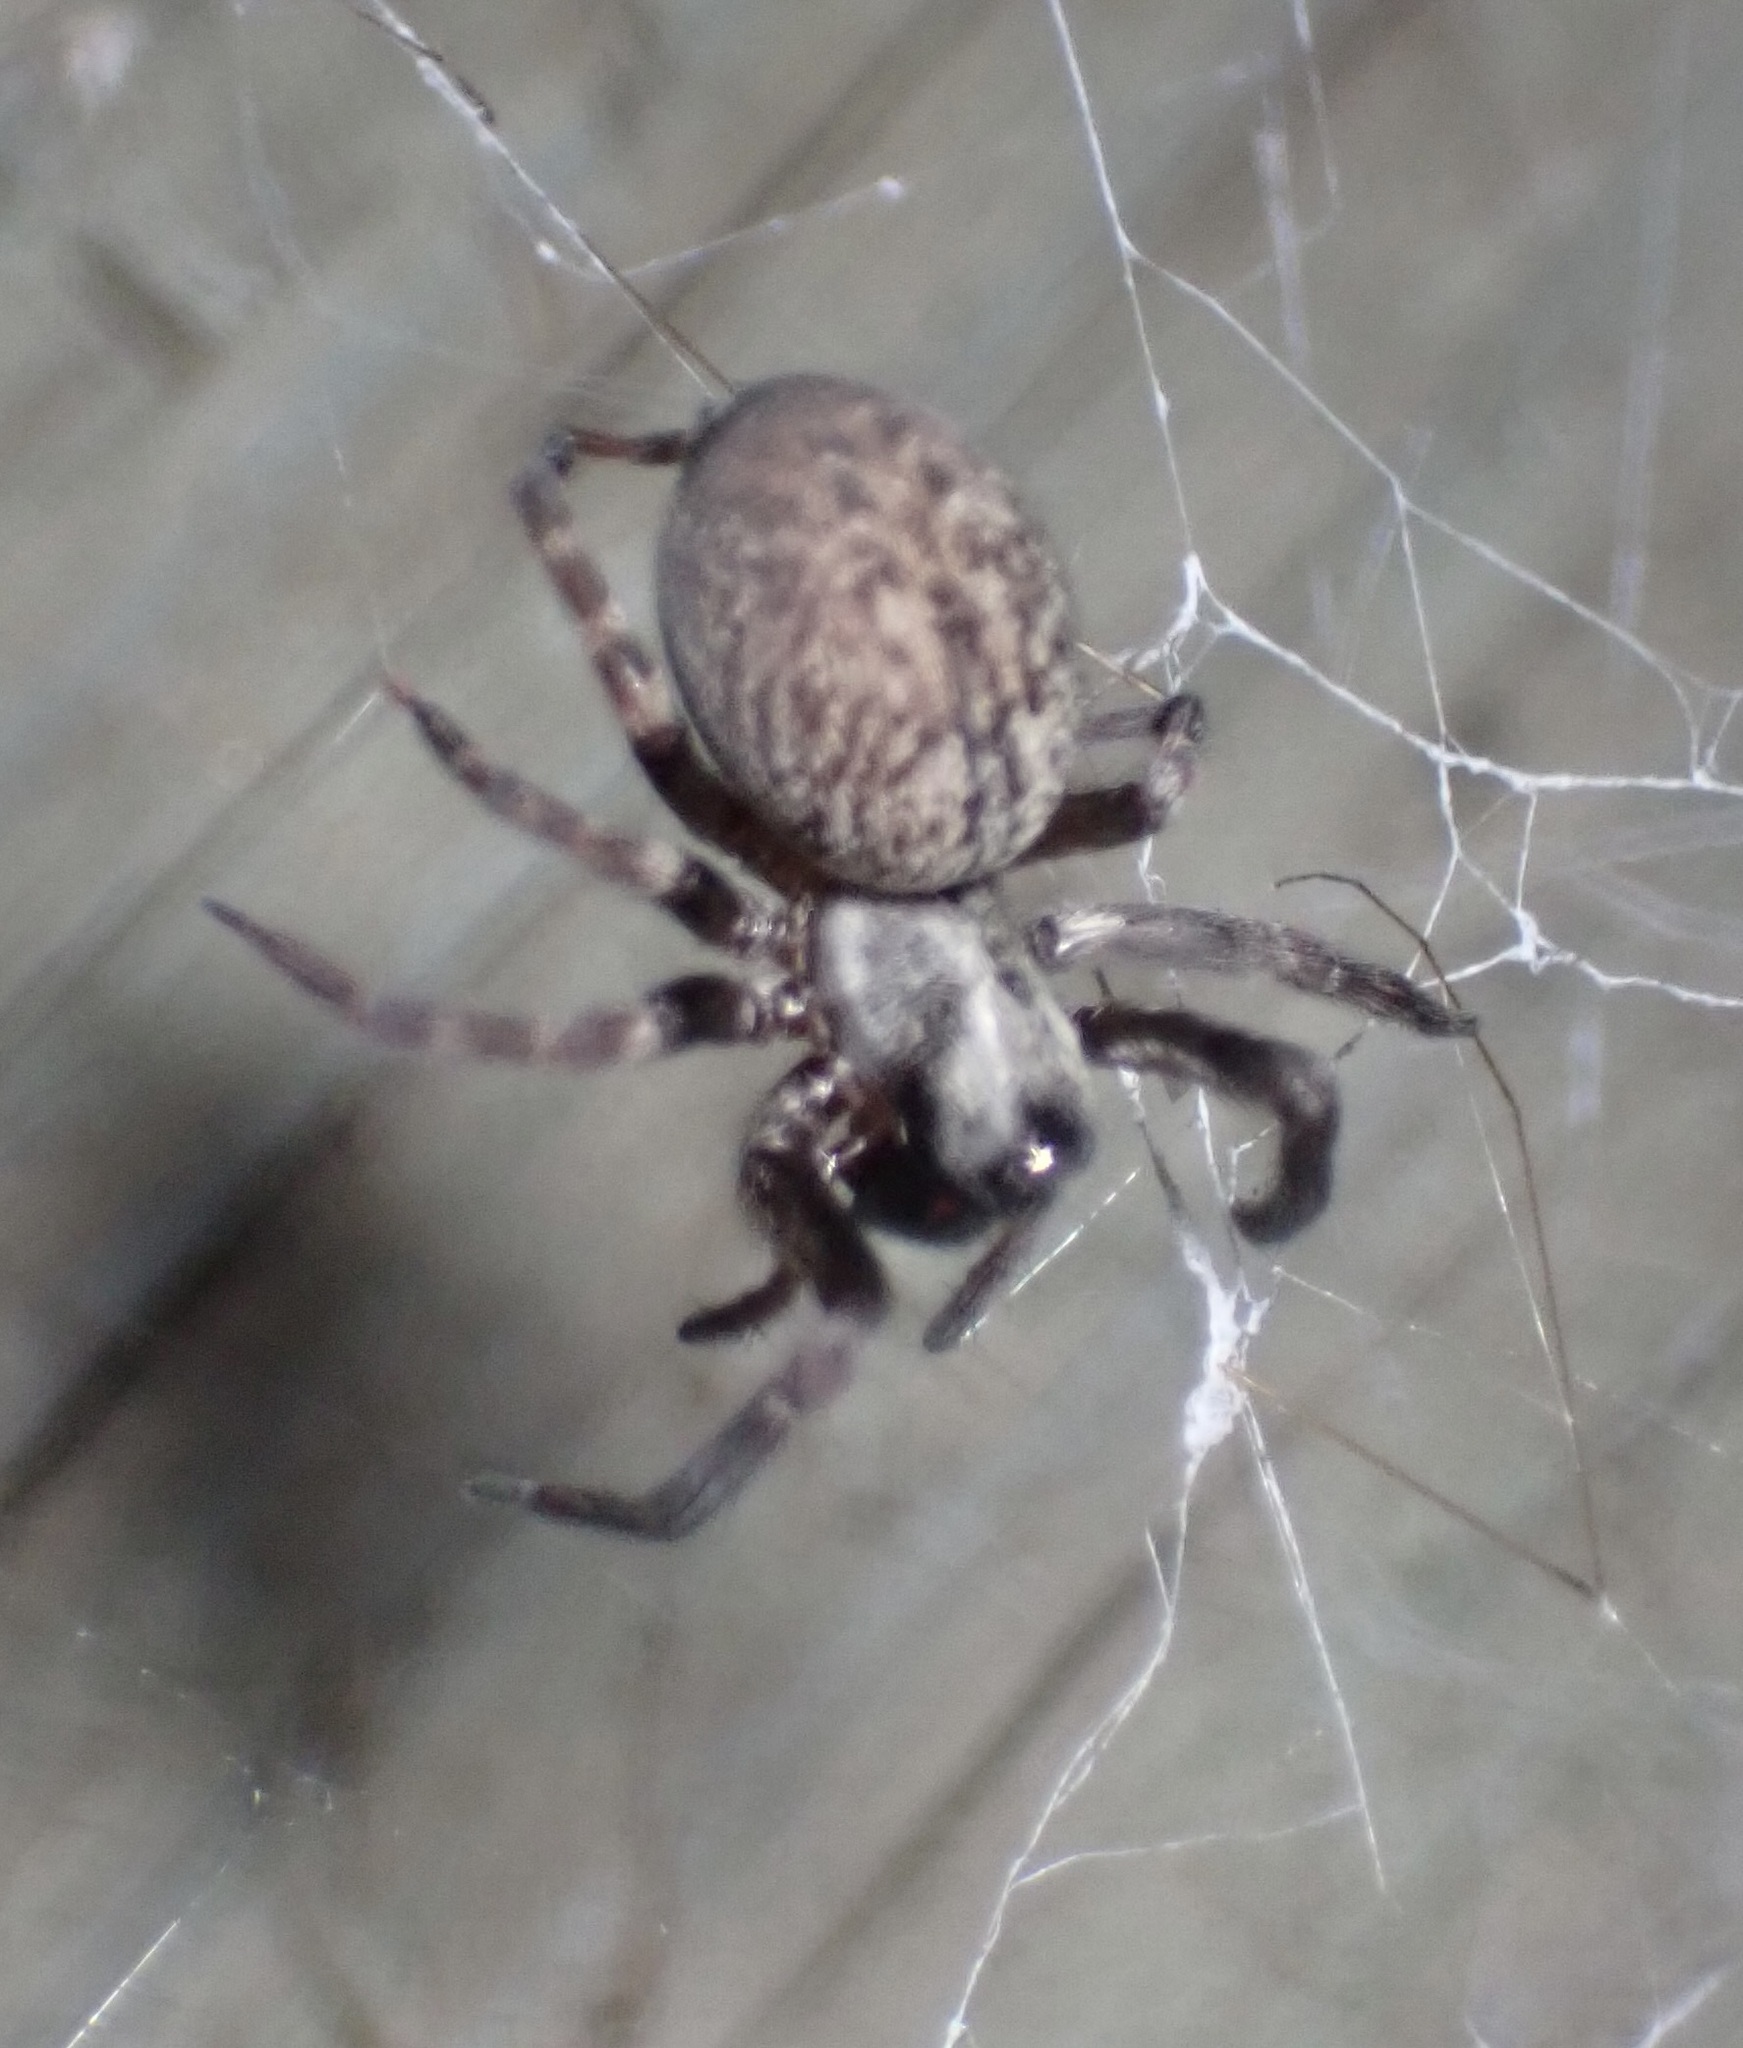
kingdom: Animalia
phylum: Arthropoda
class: Arachnida
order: Araneae
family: Desidae
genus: Badumna
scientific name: Badumna longinqua
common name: Gray house spider
